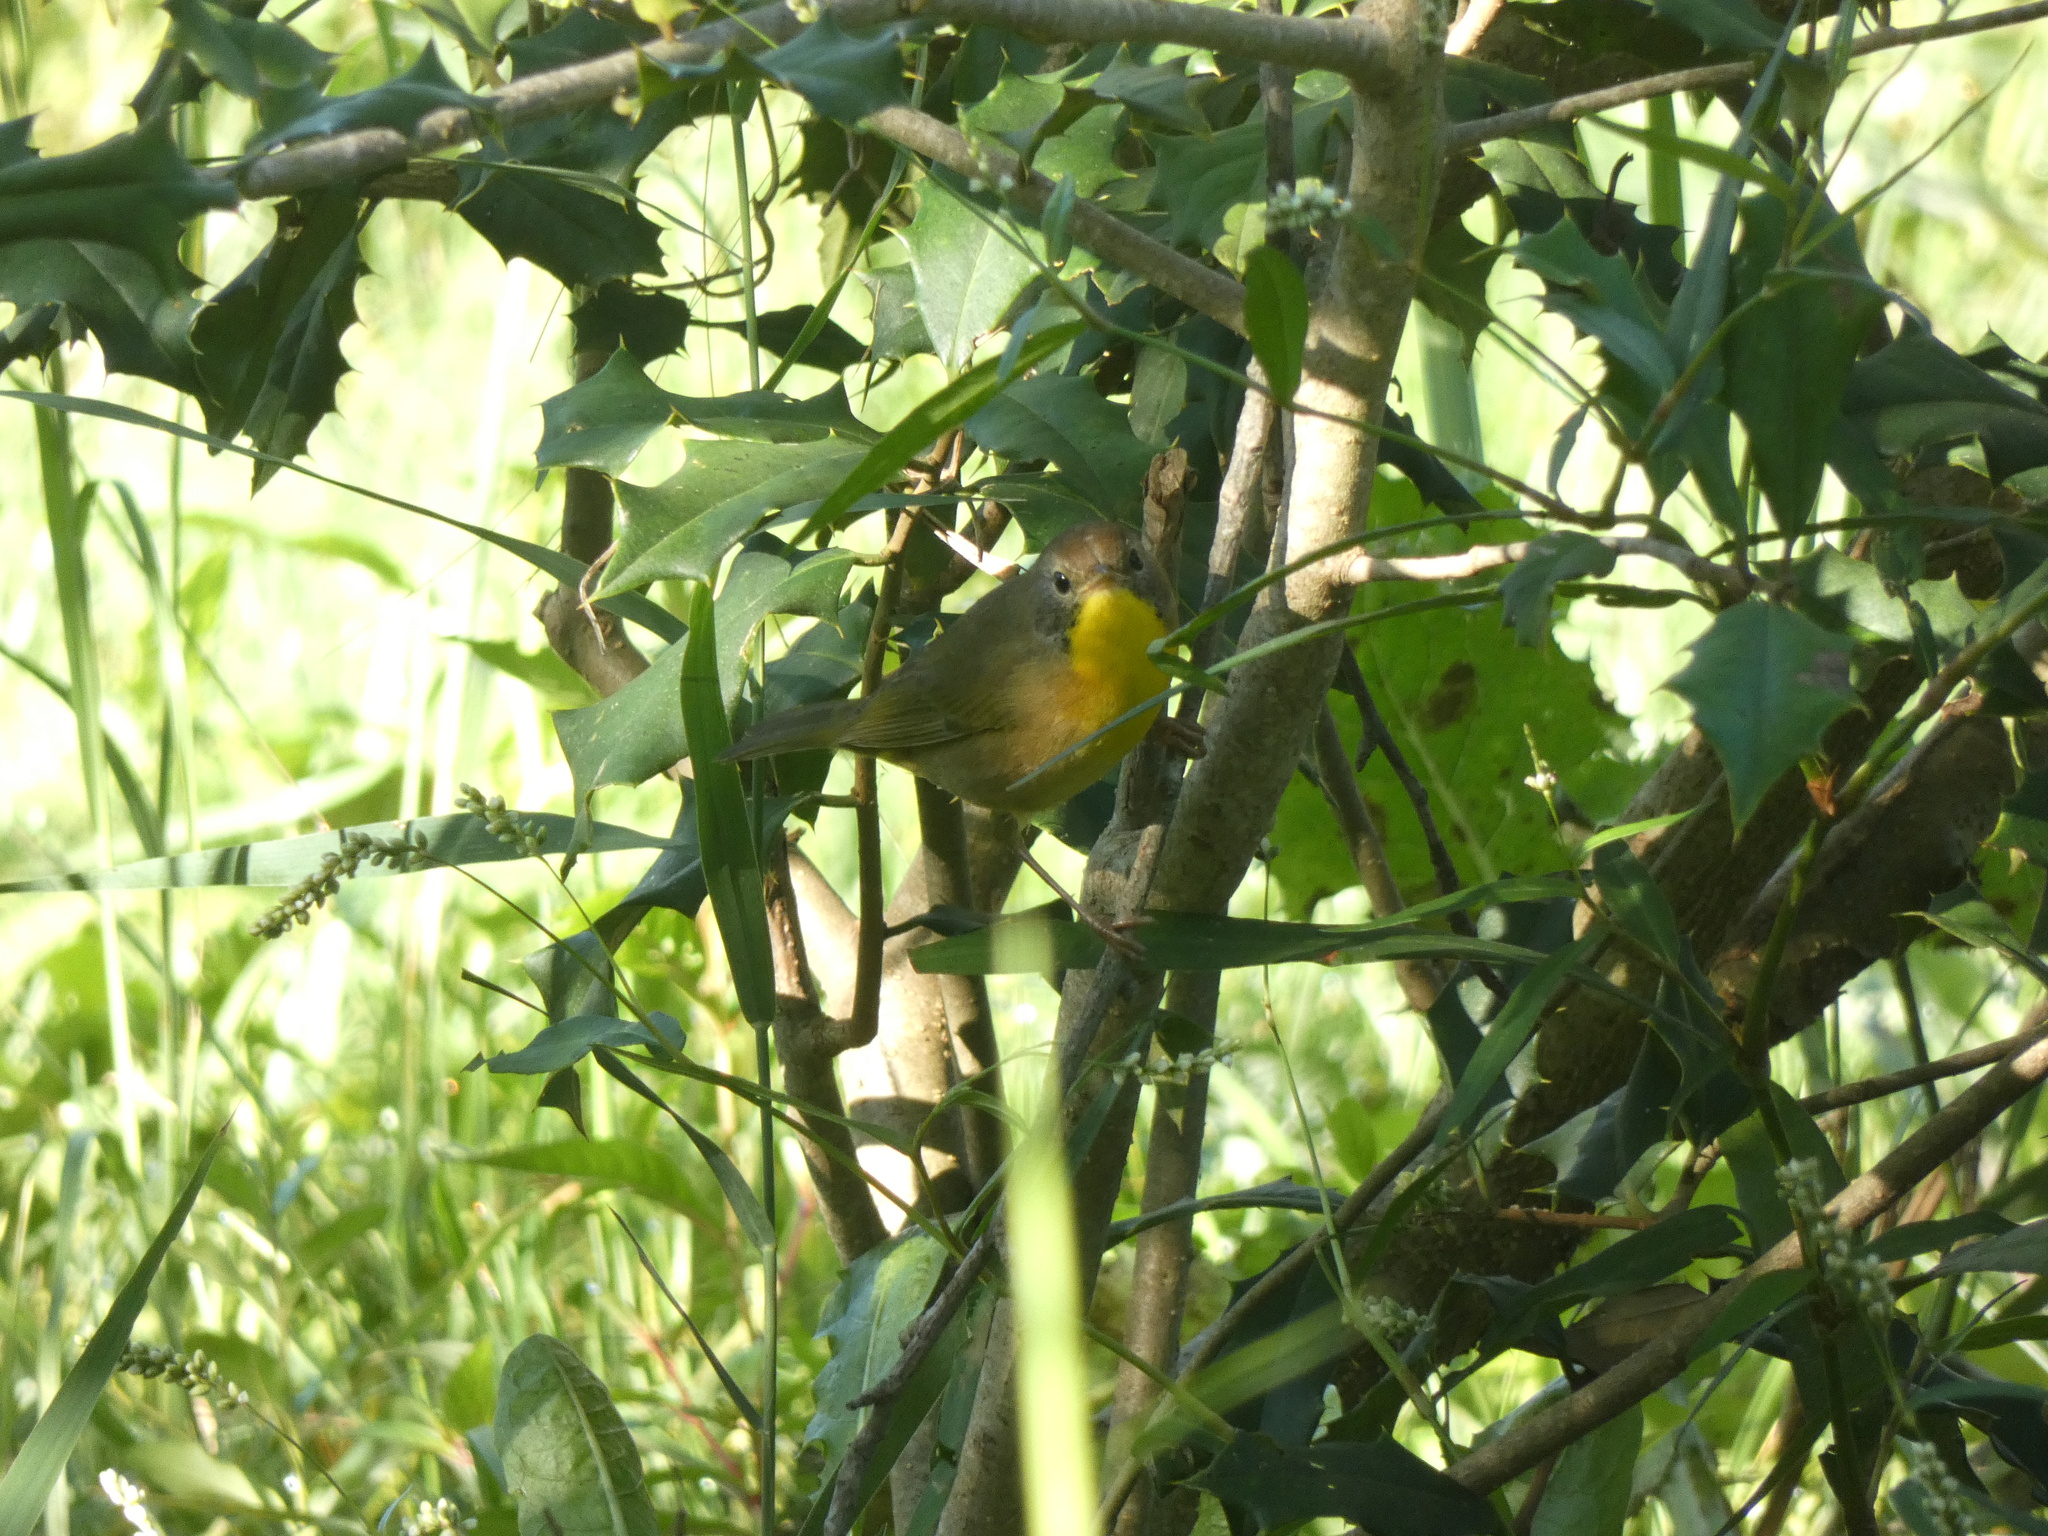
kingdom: Animalia
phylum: Chordata
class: Aves
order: Passeriformes
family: Parulidae
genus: Geothlypis
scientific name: Geothlypis trichas
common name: Common yellowthroat
